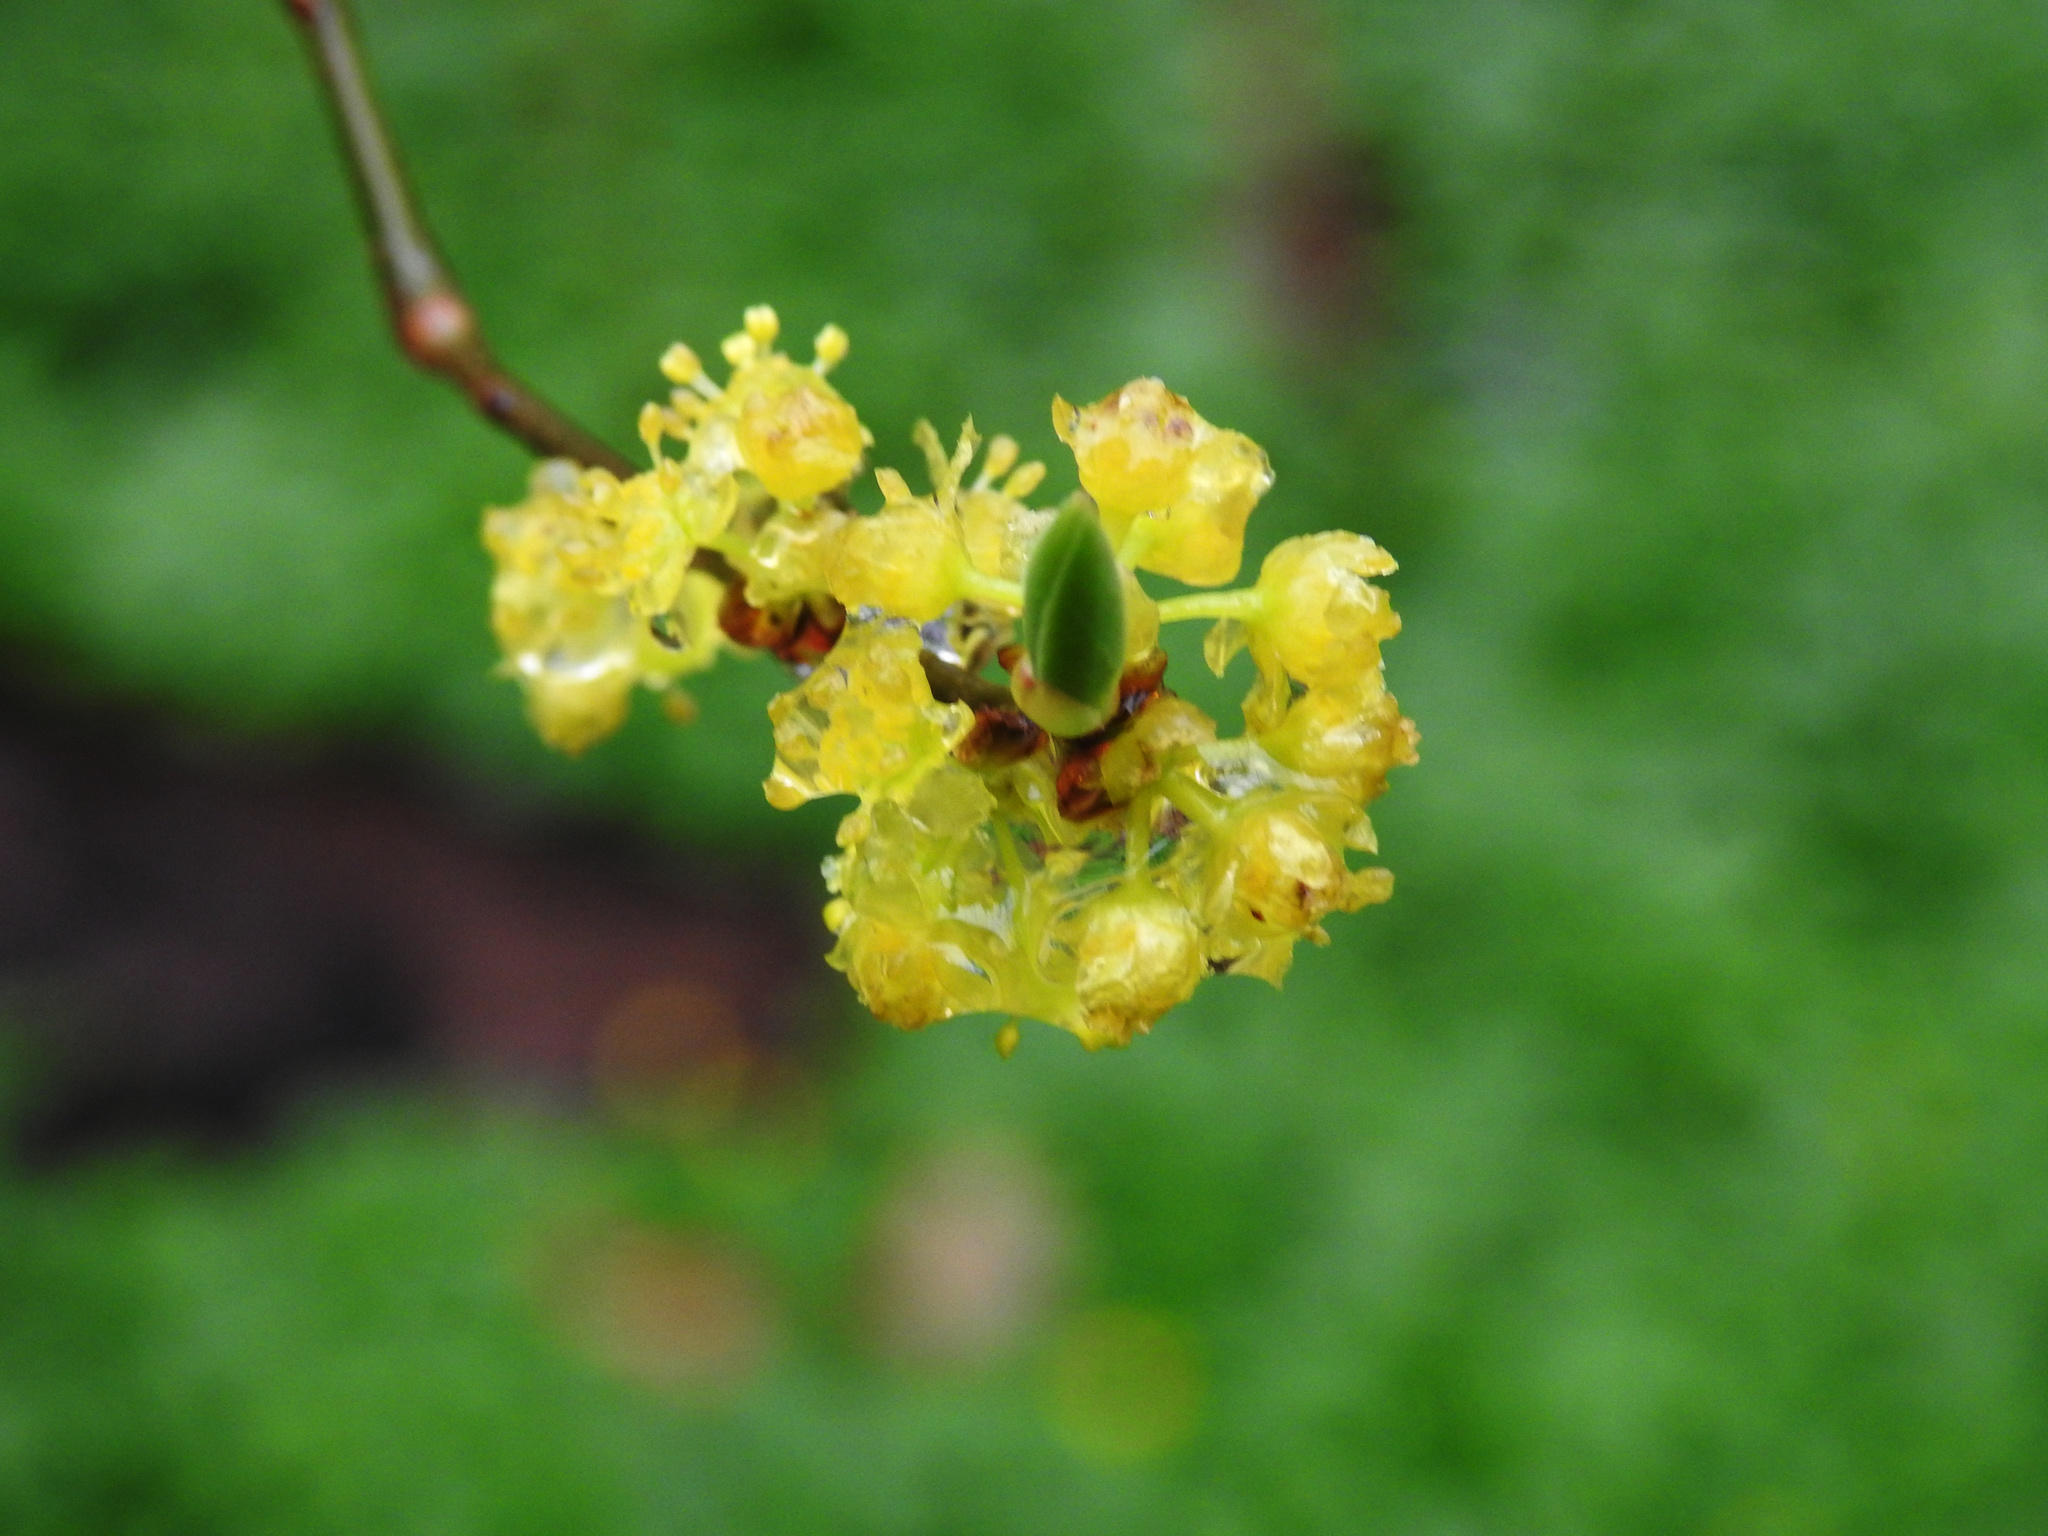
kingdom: Plantae
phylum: Tracheophyta
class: Magnoliopsida
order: Laurales
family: Lauraceae
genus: Lindera
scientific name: Lindera benzoin
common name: Spicebush
